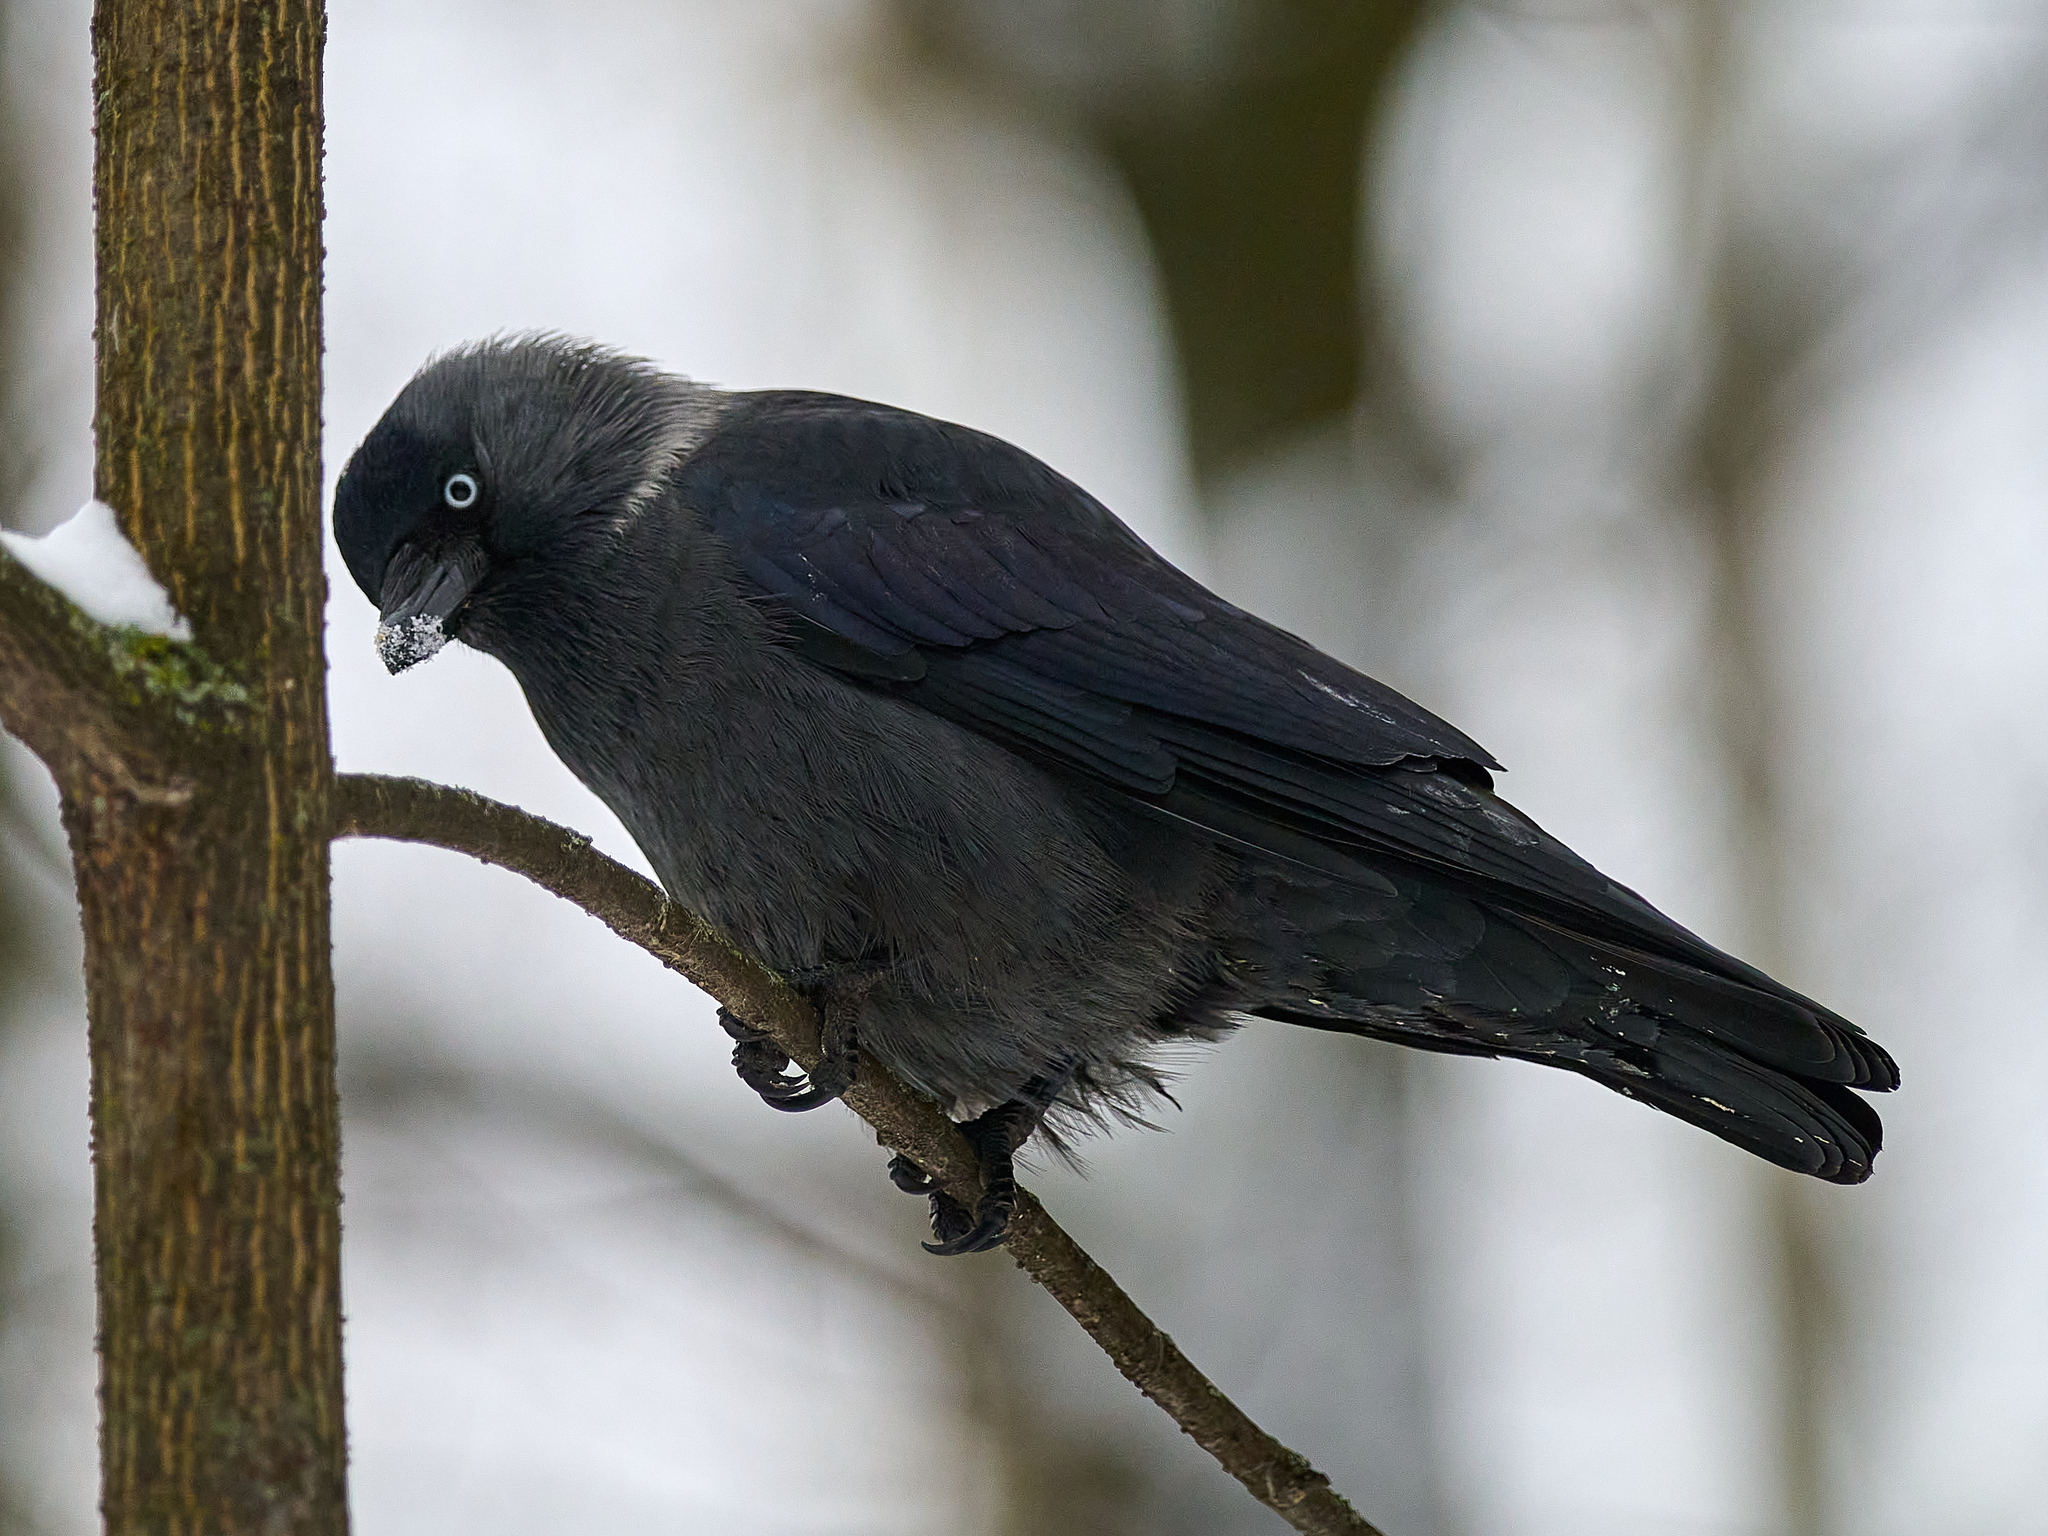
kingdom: Animalia
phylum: Chordata
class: Aves
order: Passeriformes
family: Corvidae
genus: Coloeus
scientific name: Coloeus monedula
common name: Western jackdaw
